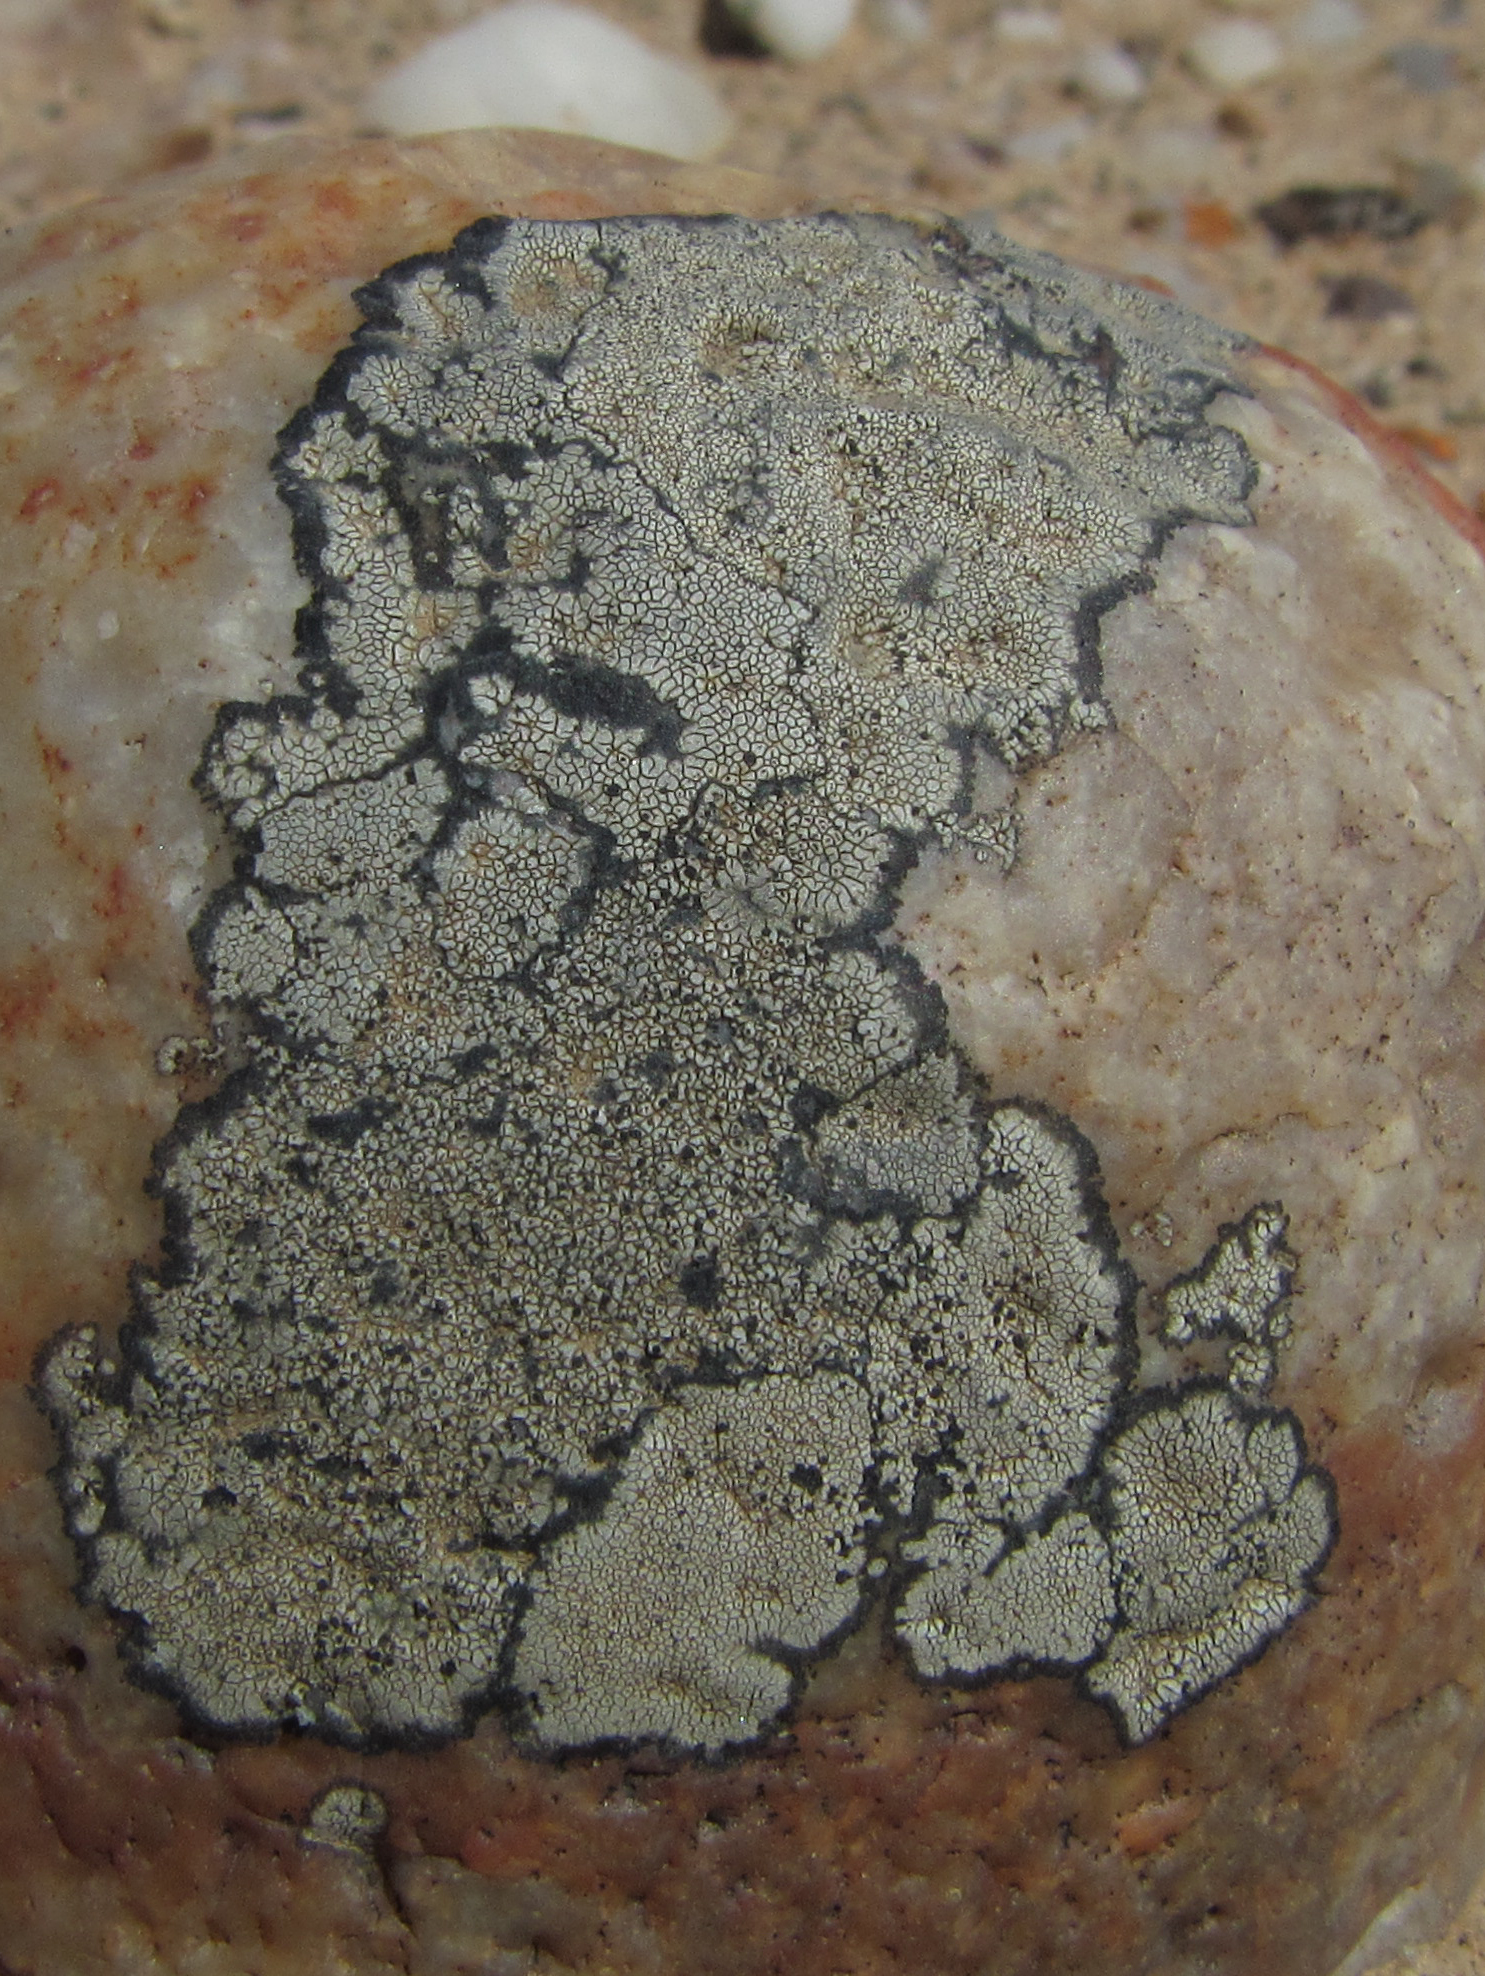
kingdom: Fungi
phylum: Ascomycota
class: Lecanoromycetes
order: Caliciales
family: Caliciaceae
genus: Dimelaena
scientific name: Dimelaena australiensis
